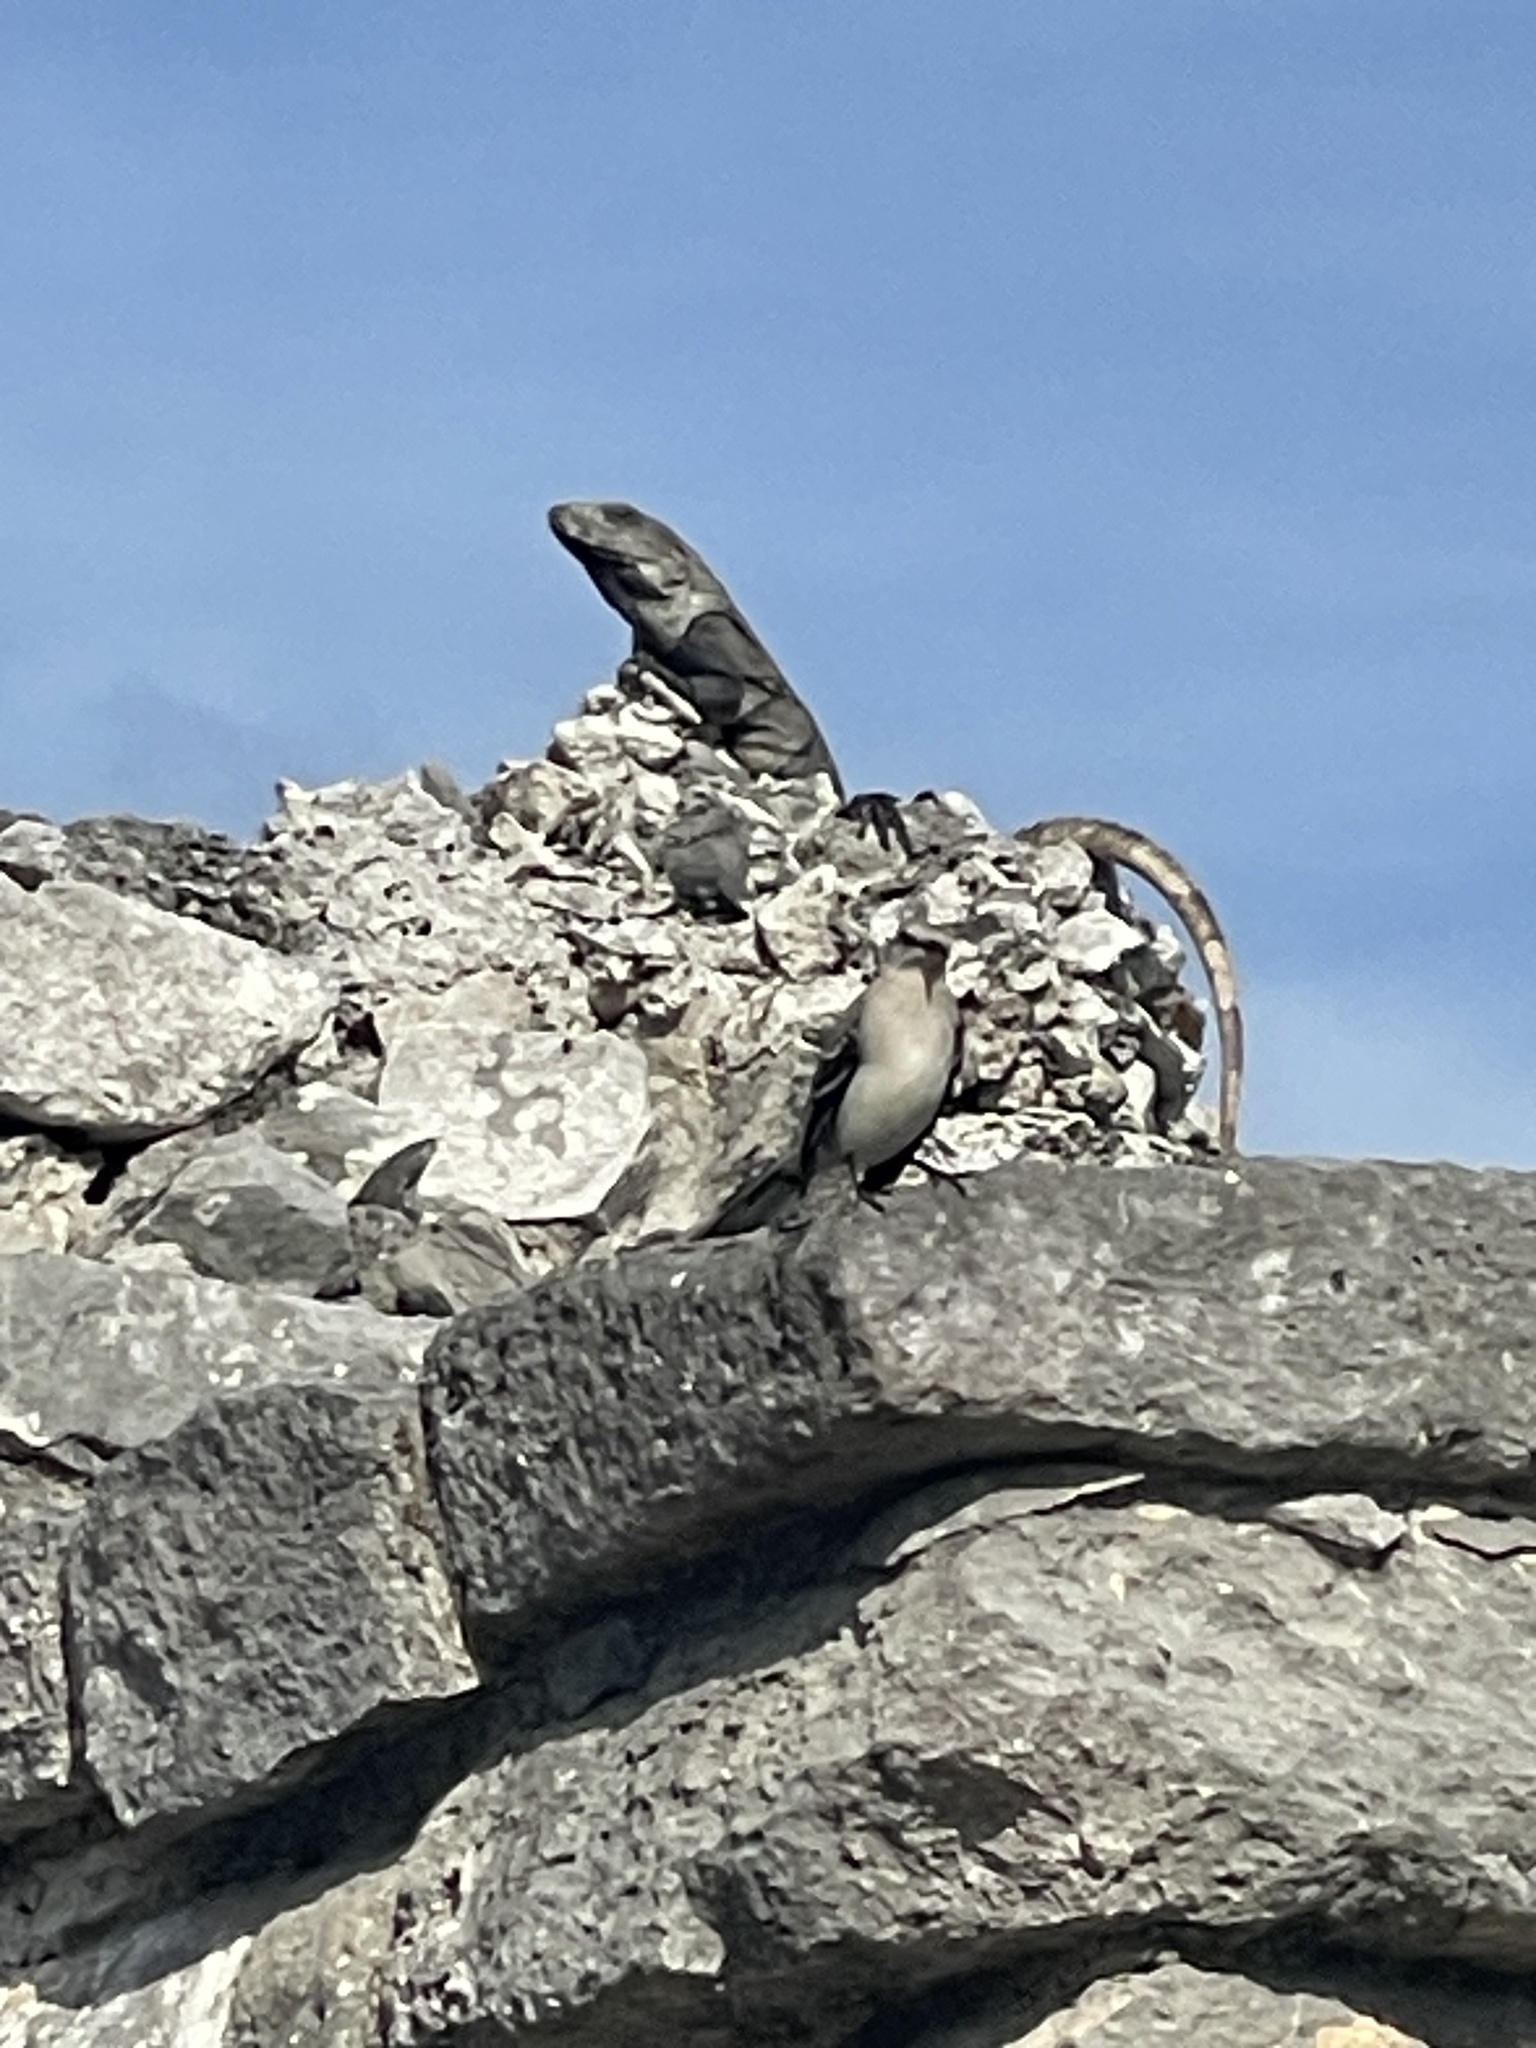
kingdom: Animalia
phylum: Chordata
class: Squamata
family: Iguanidae
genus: Ctenosaura
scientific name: Ctenosaura similis
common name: Black spiny-tailed iguana
